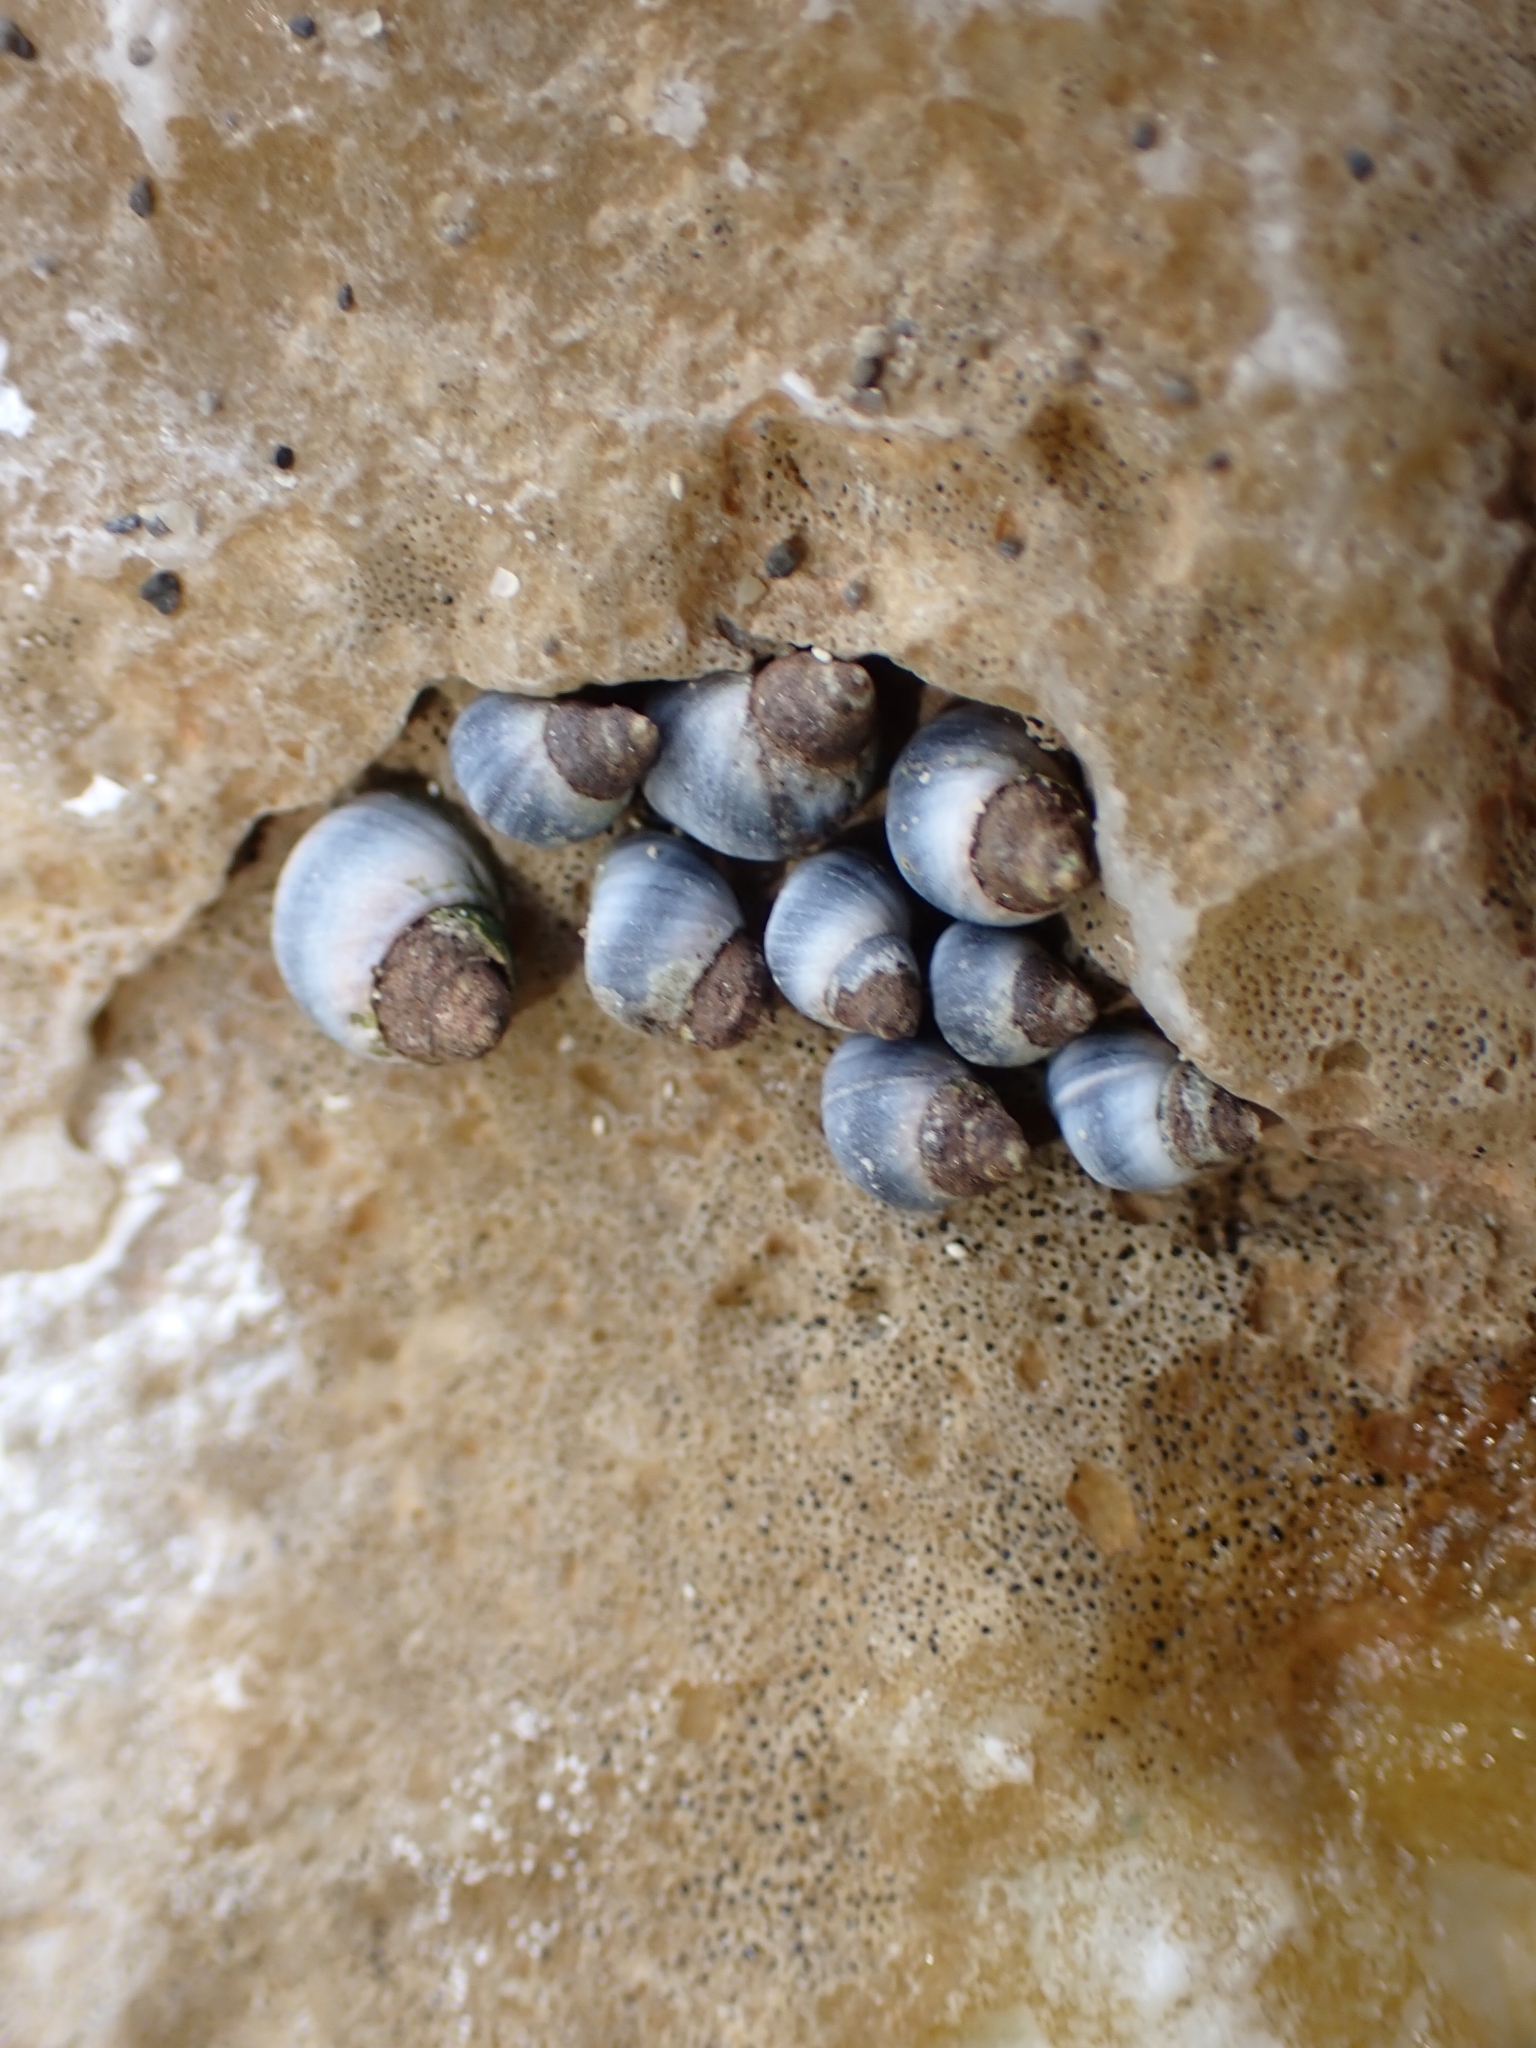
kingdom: Animalia
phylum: Mollusca
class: Gastropoda
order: Littorinimorpha
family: Littorinidae
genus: Austrolittorina
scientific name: Austrolittorina antipodum
